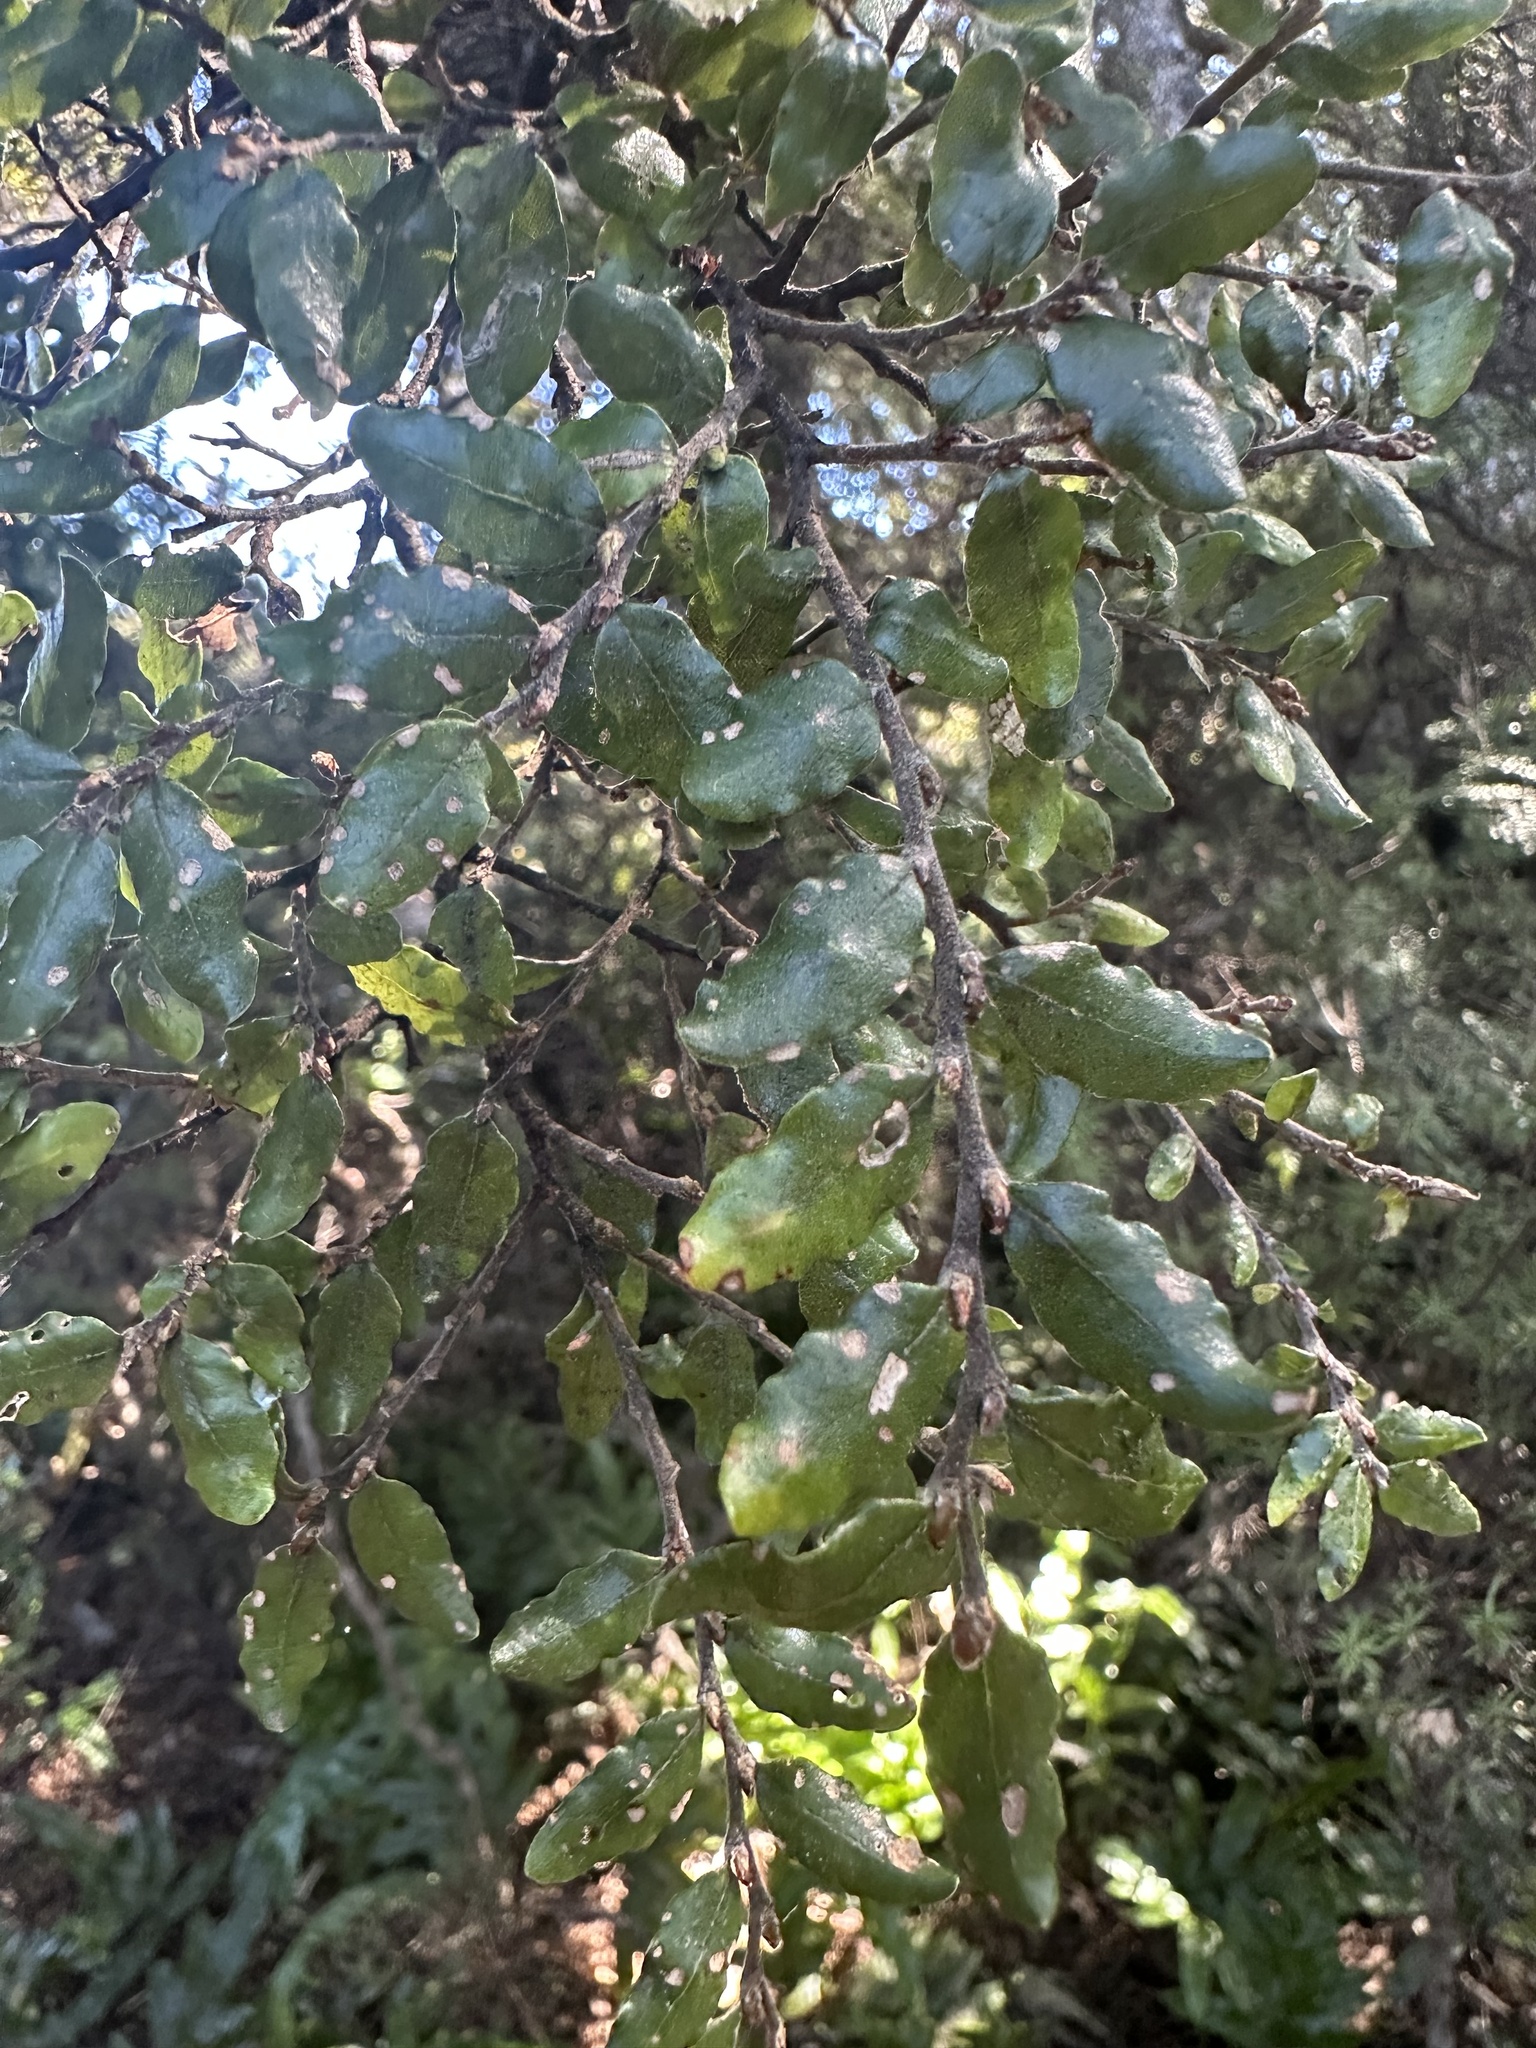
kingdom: Plantae
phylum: Tracheophyta
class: Magnoliopsida
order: Fagales
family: Nothofagaceae
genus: Nothofagus
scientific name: Nothofagus solandri
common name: Black beech
